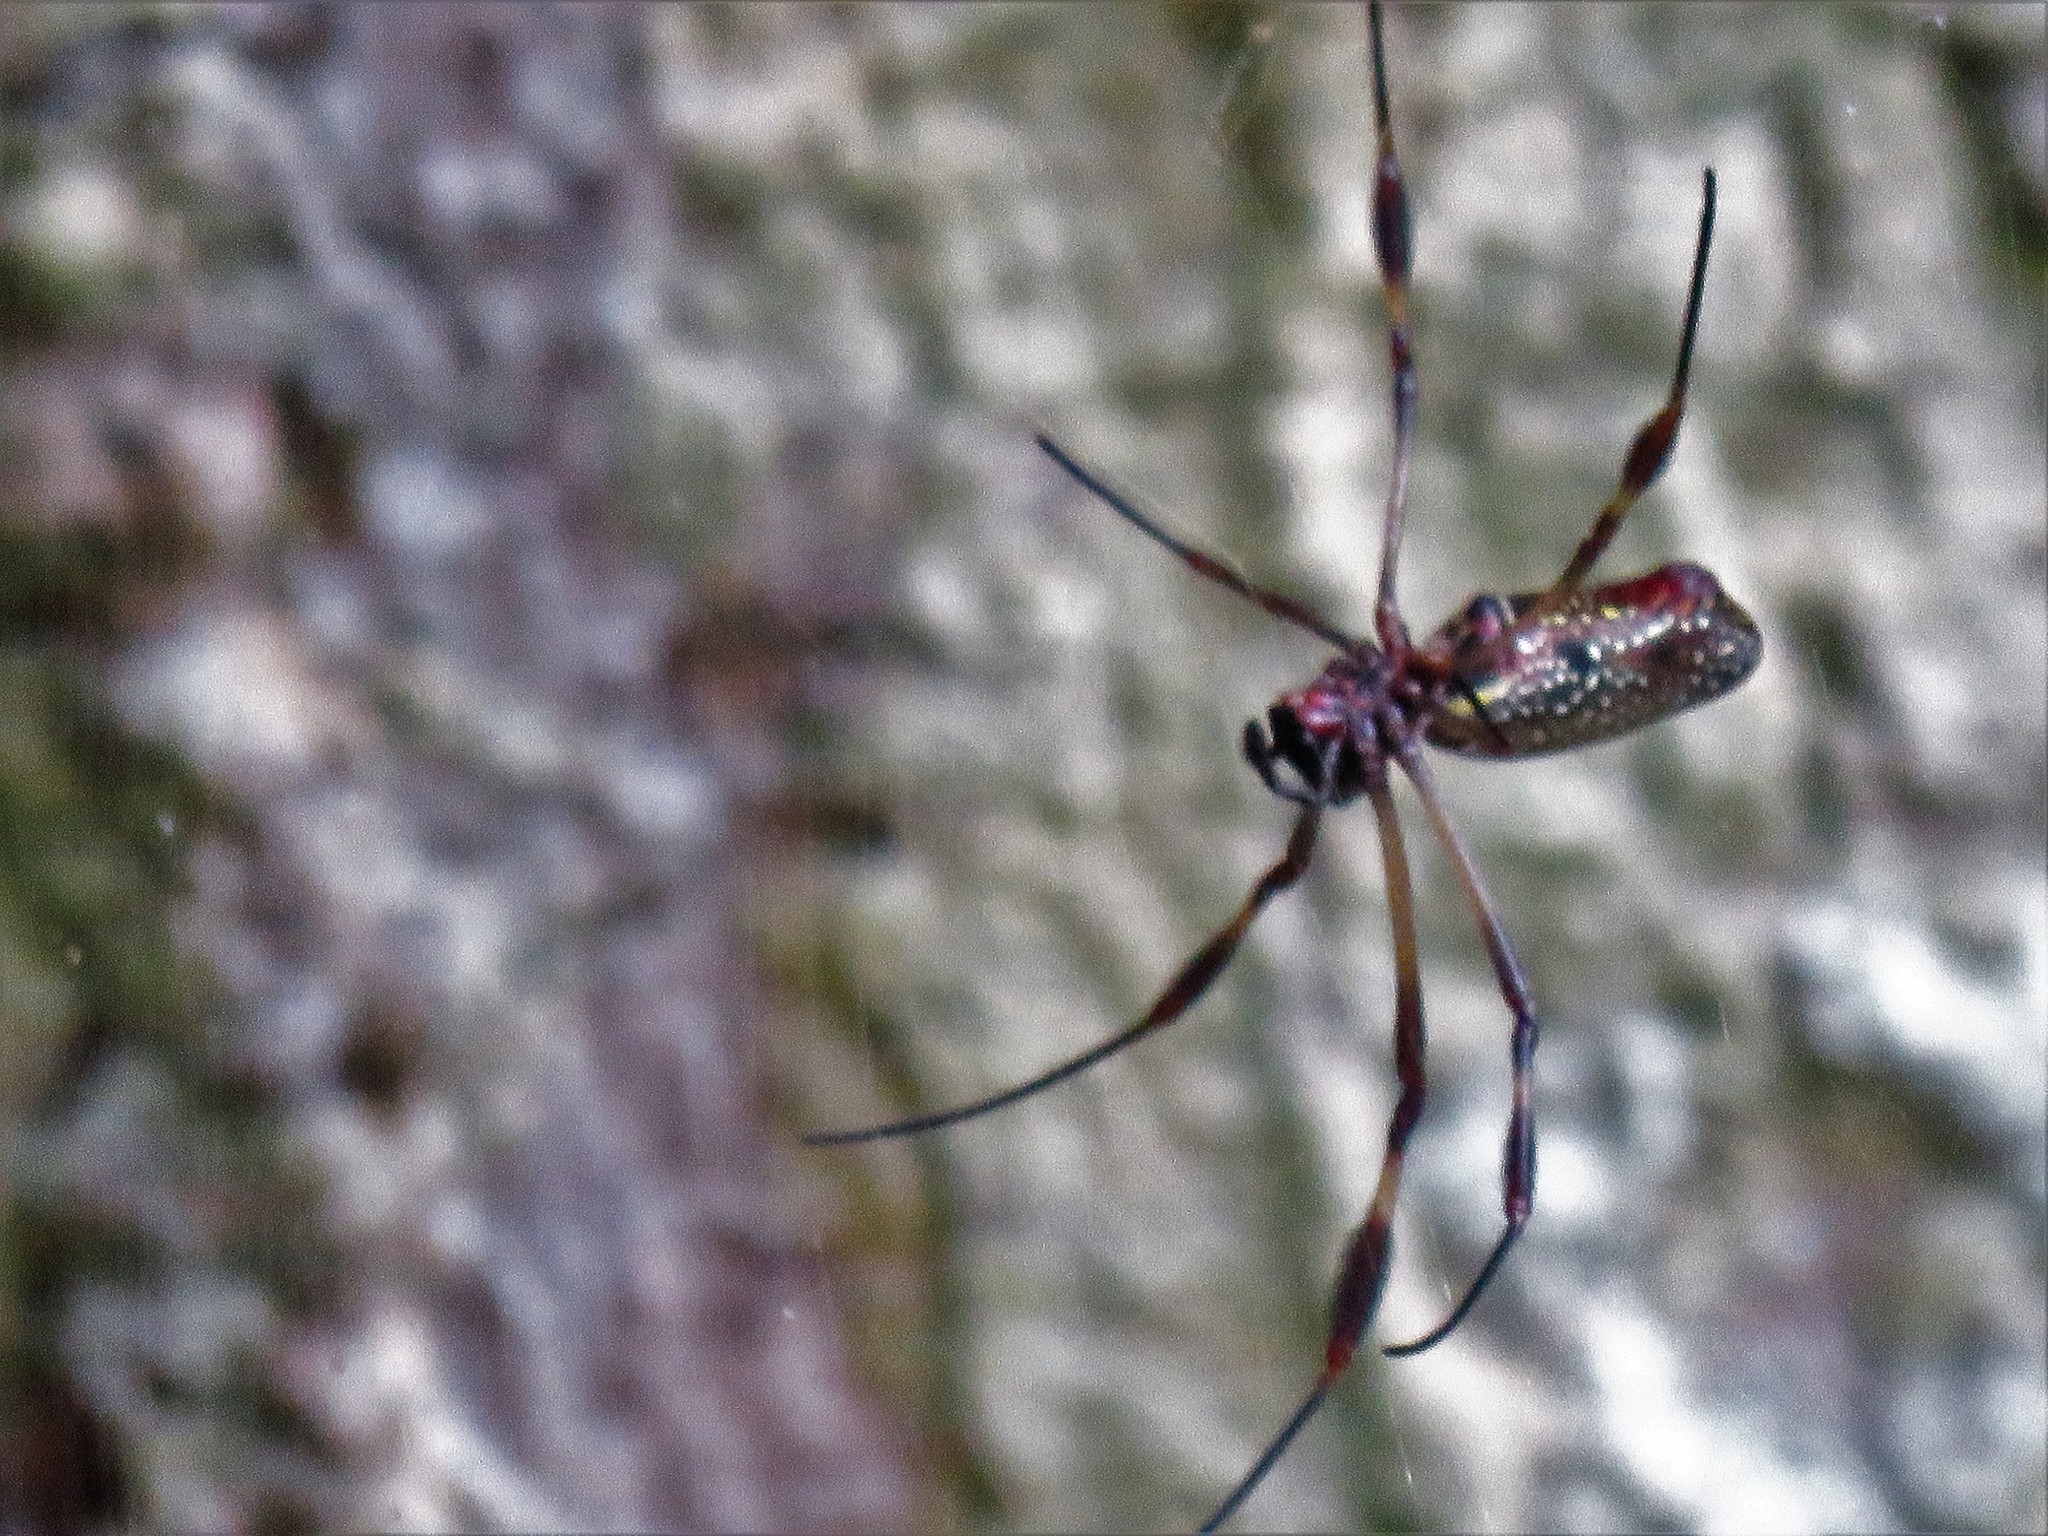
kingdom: Animalia
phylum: Arthropoda
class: Arachnida
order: Araneae
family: Araneidae
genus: Trichonephila
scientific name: Trichonephila clavipes
